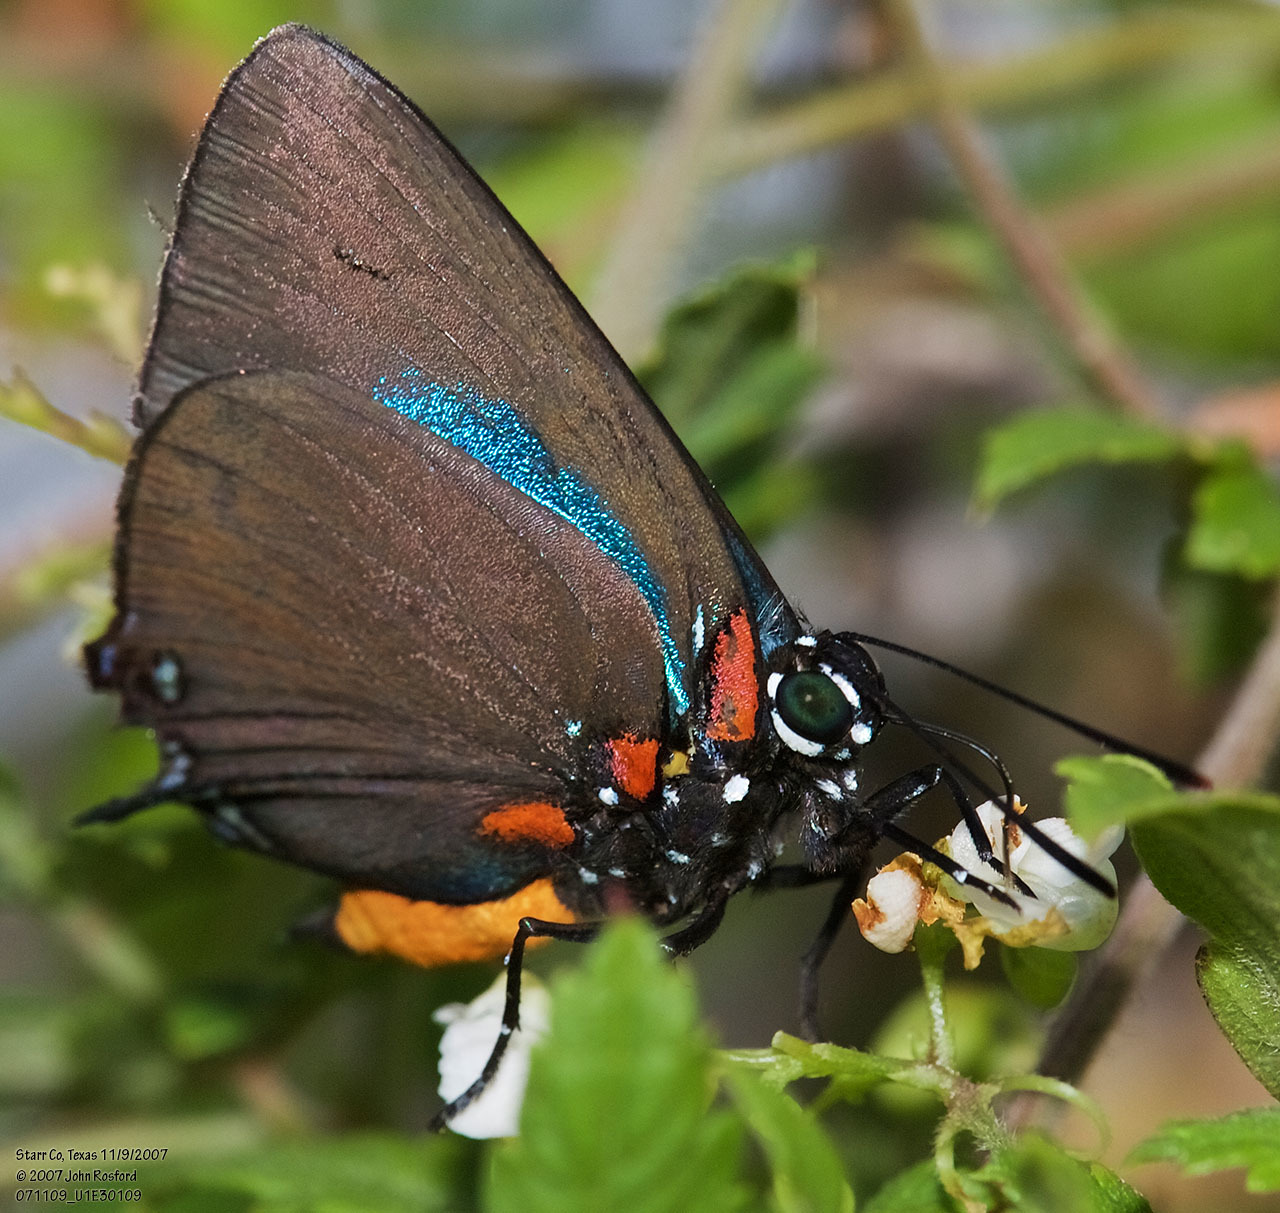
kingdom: Animalia
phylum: Arthropoda
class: Insecta
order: Lepidoptera
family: Lycaenidae
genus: Atlides
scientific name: Atlides halesus
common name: Great purple hairstreak
